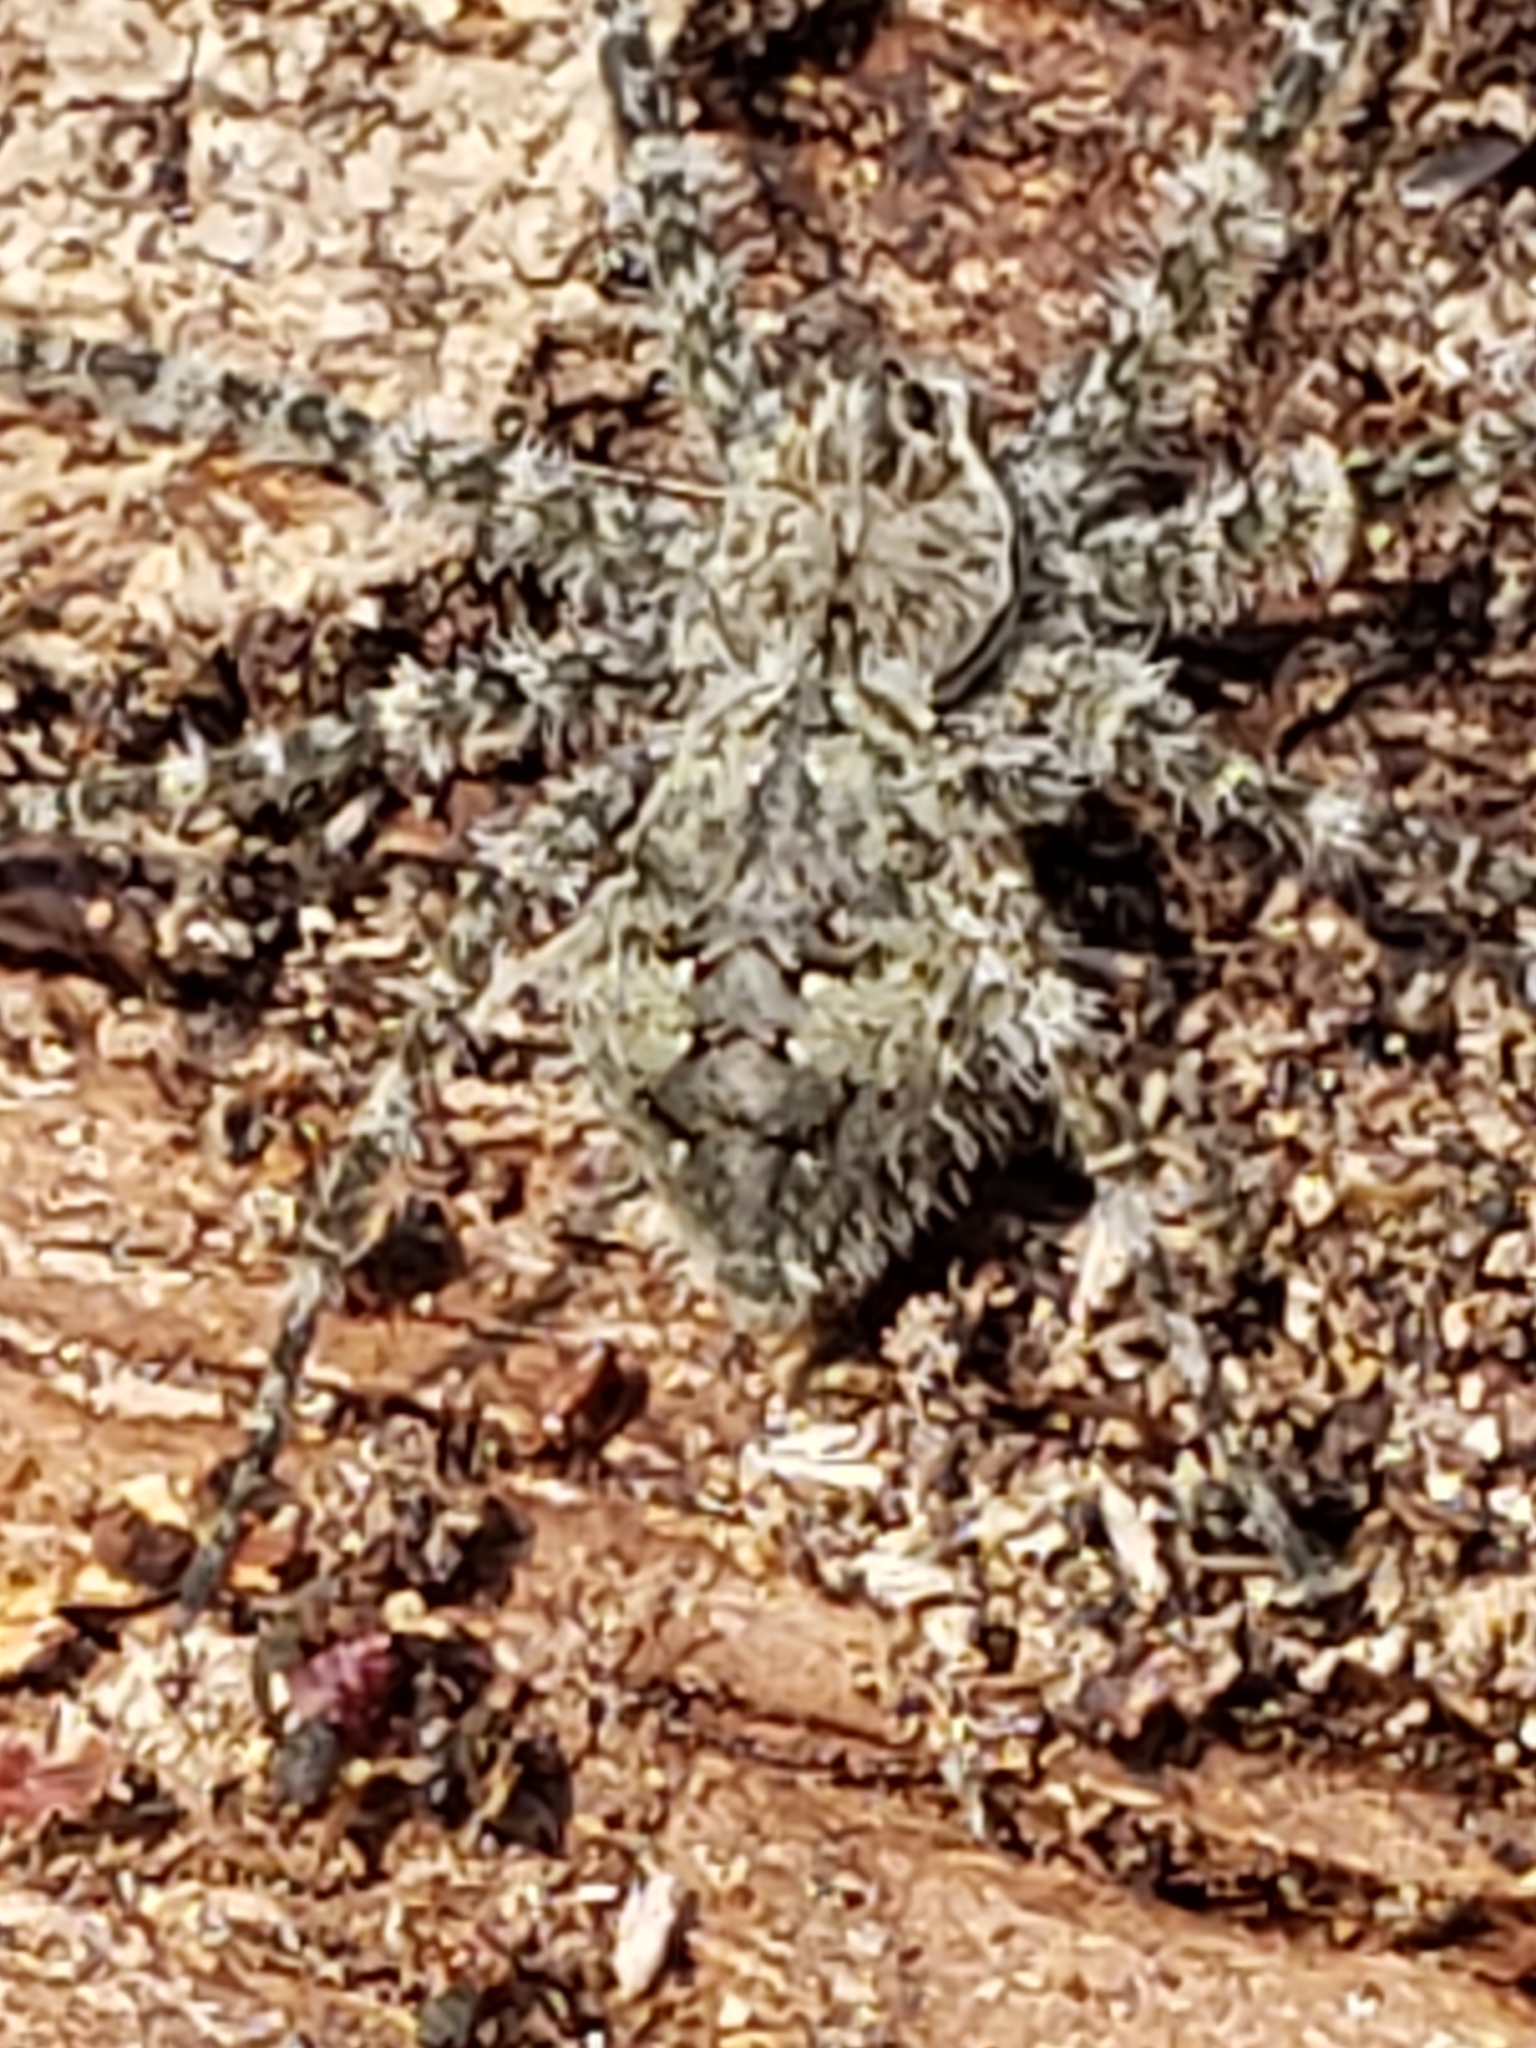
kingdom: Animalia
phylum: Arthropoda
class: Arachnida
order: Araneae
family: Pisauridae
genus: Dolomedes
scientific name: Dolomedes albineus
